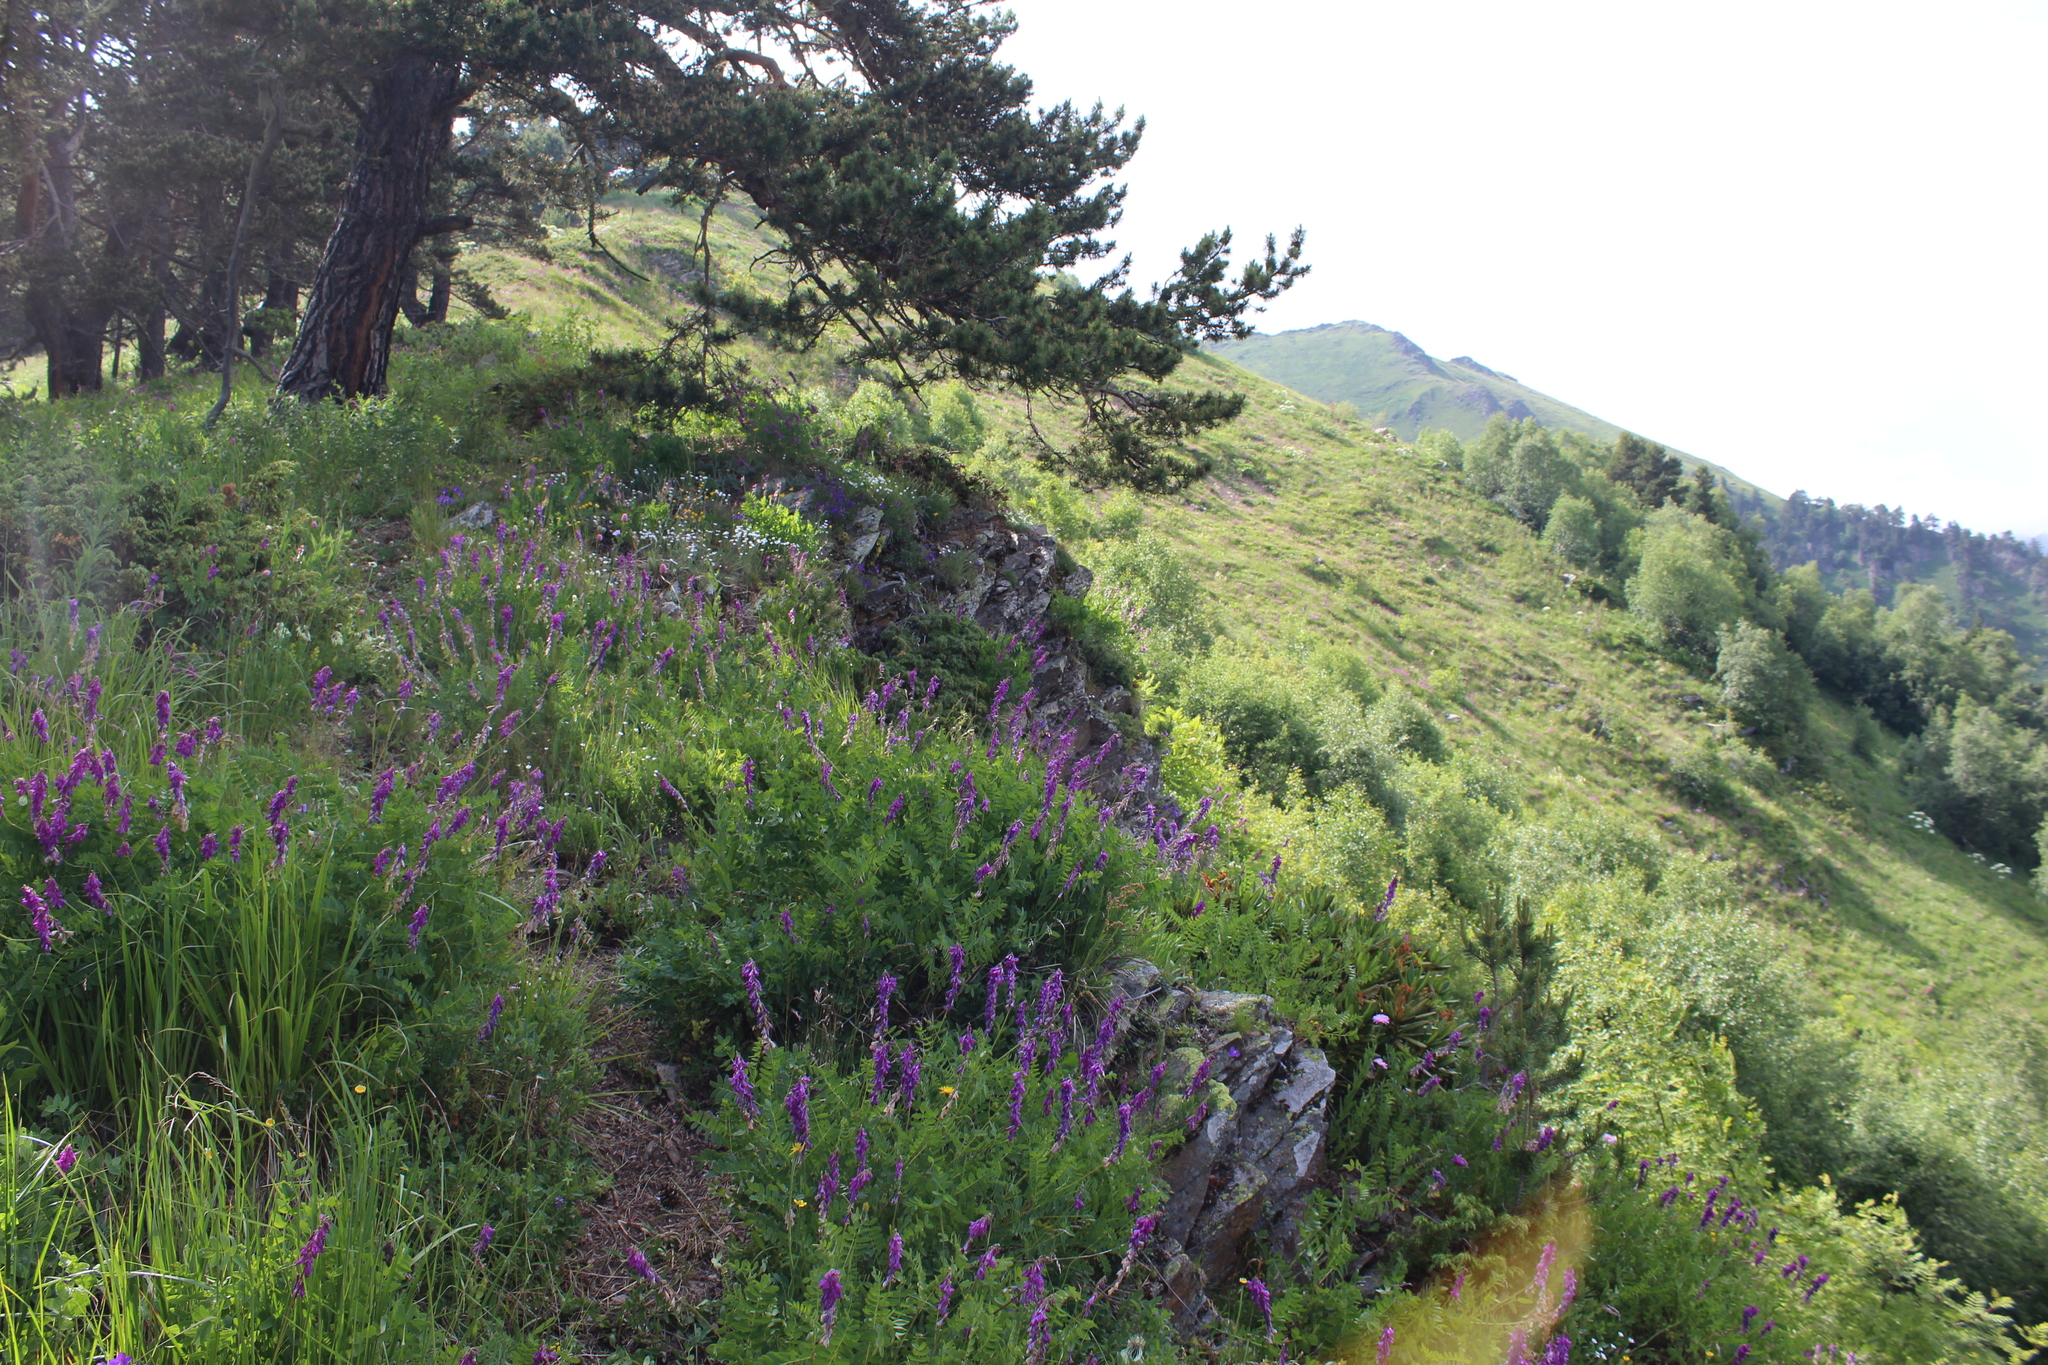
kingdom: Plantae
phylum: Tracheophyta
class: Magnoliopsida
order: Fabales
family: Fabaceae
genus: Hedysarum
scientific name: Hedysarum caucasicum
